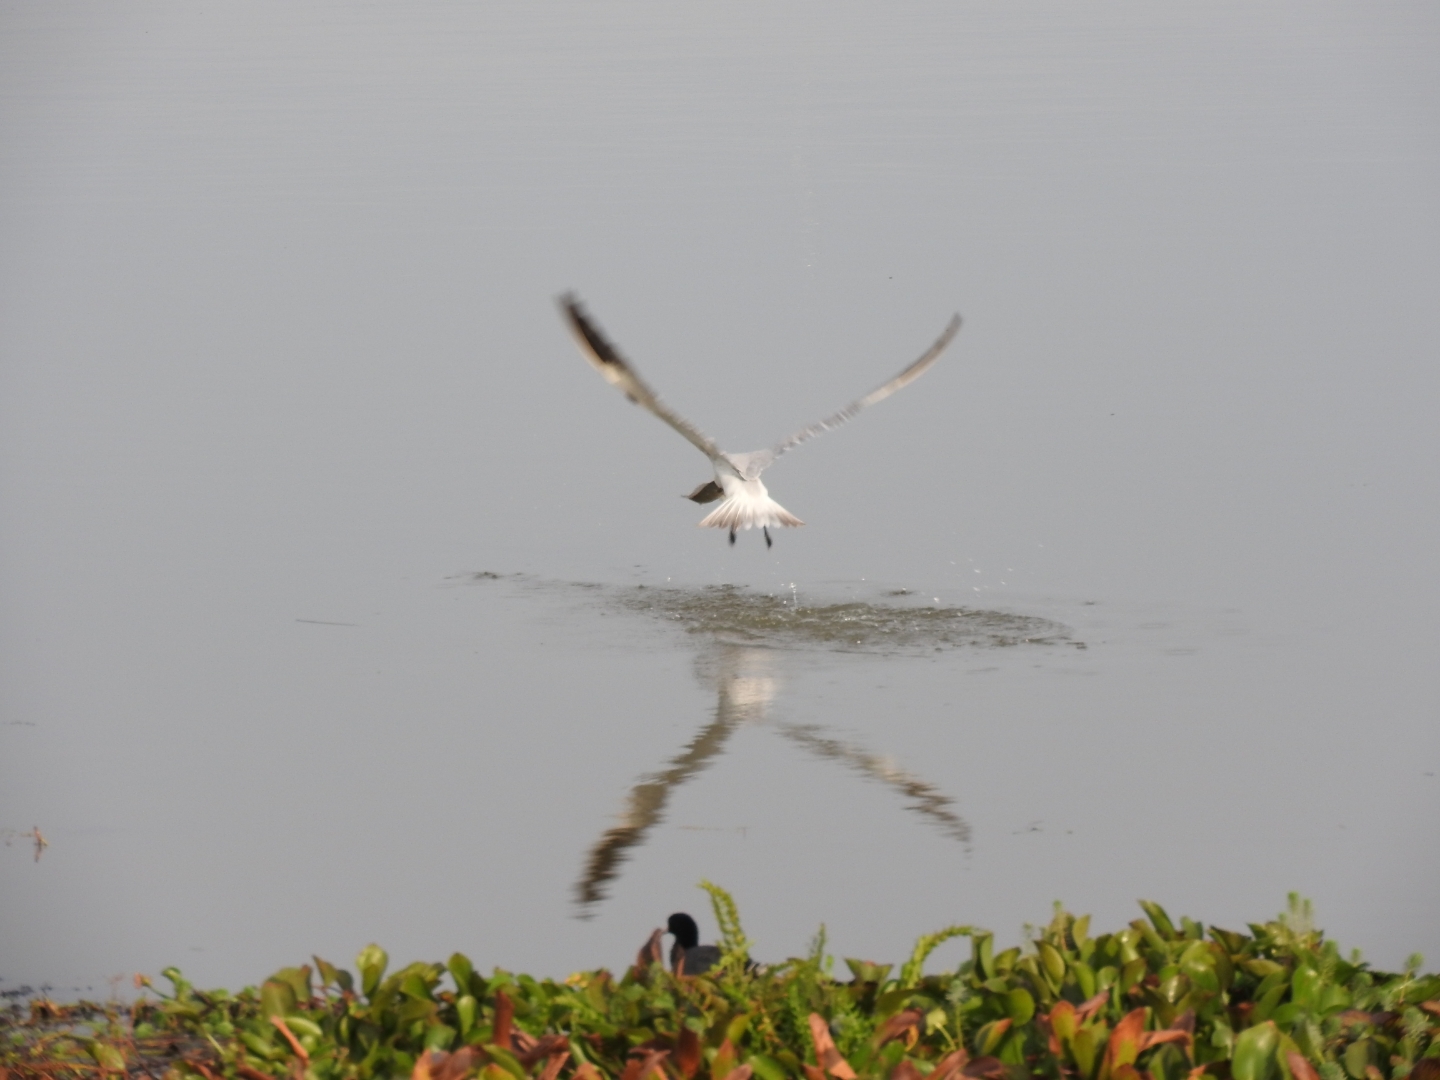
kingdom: Animalia
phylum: Chordata
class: Aves
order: Charadriiformes
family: Laridae
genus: Sterna
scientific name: Sterna forsteri
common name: Forster's tern
